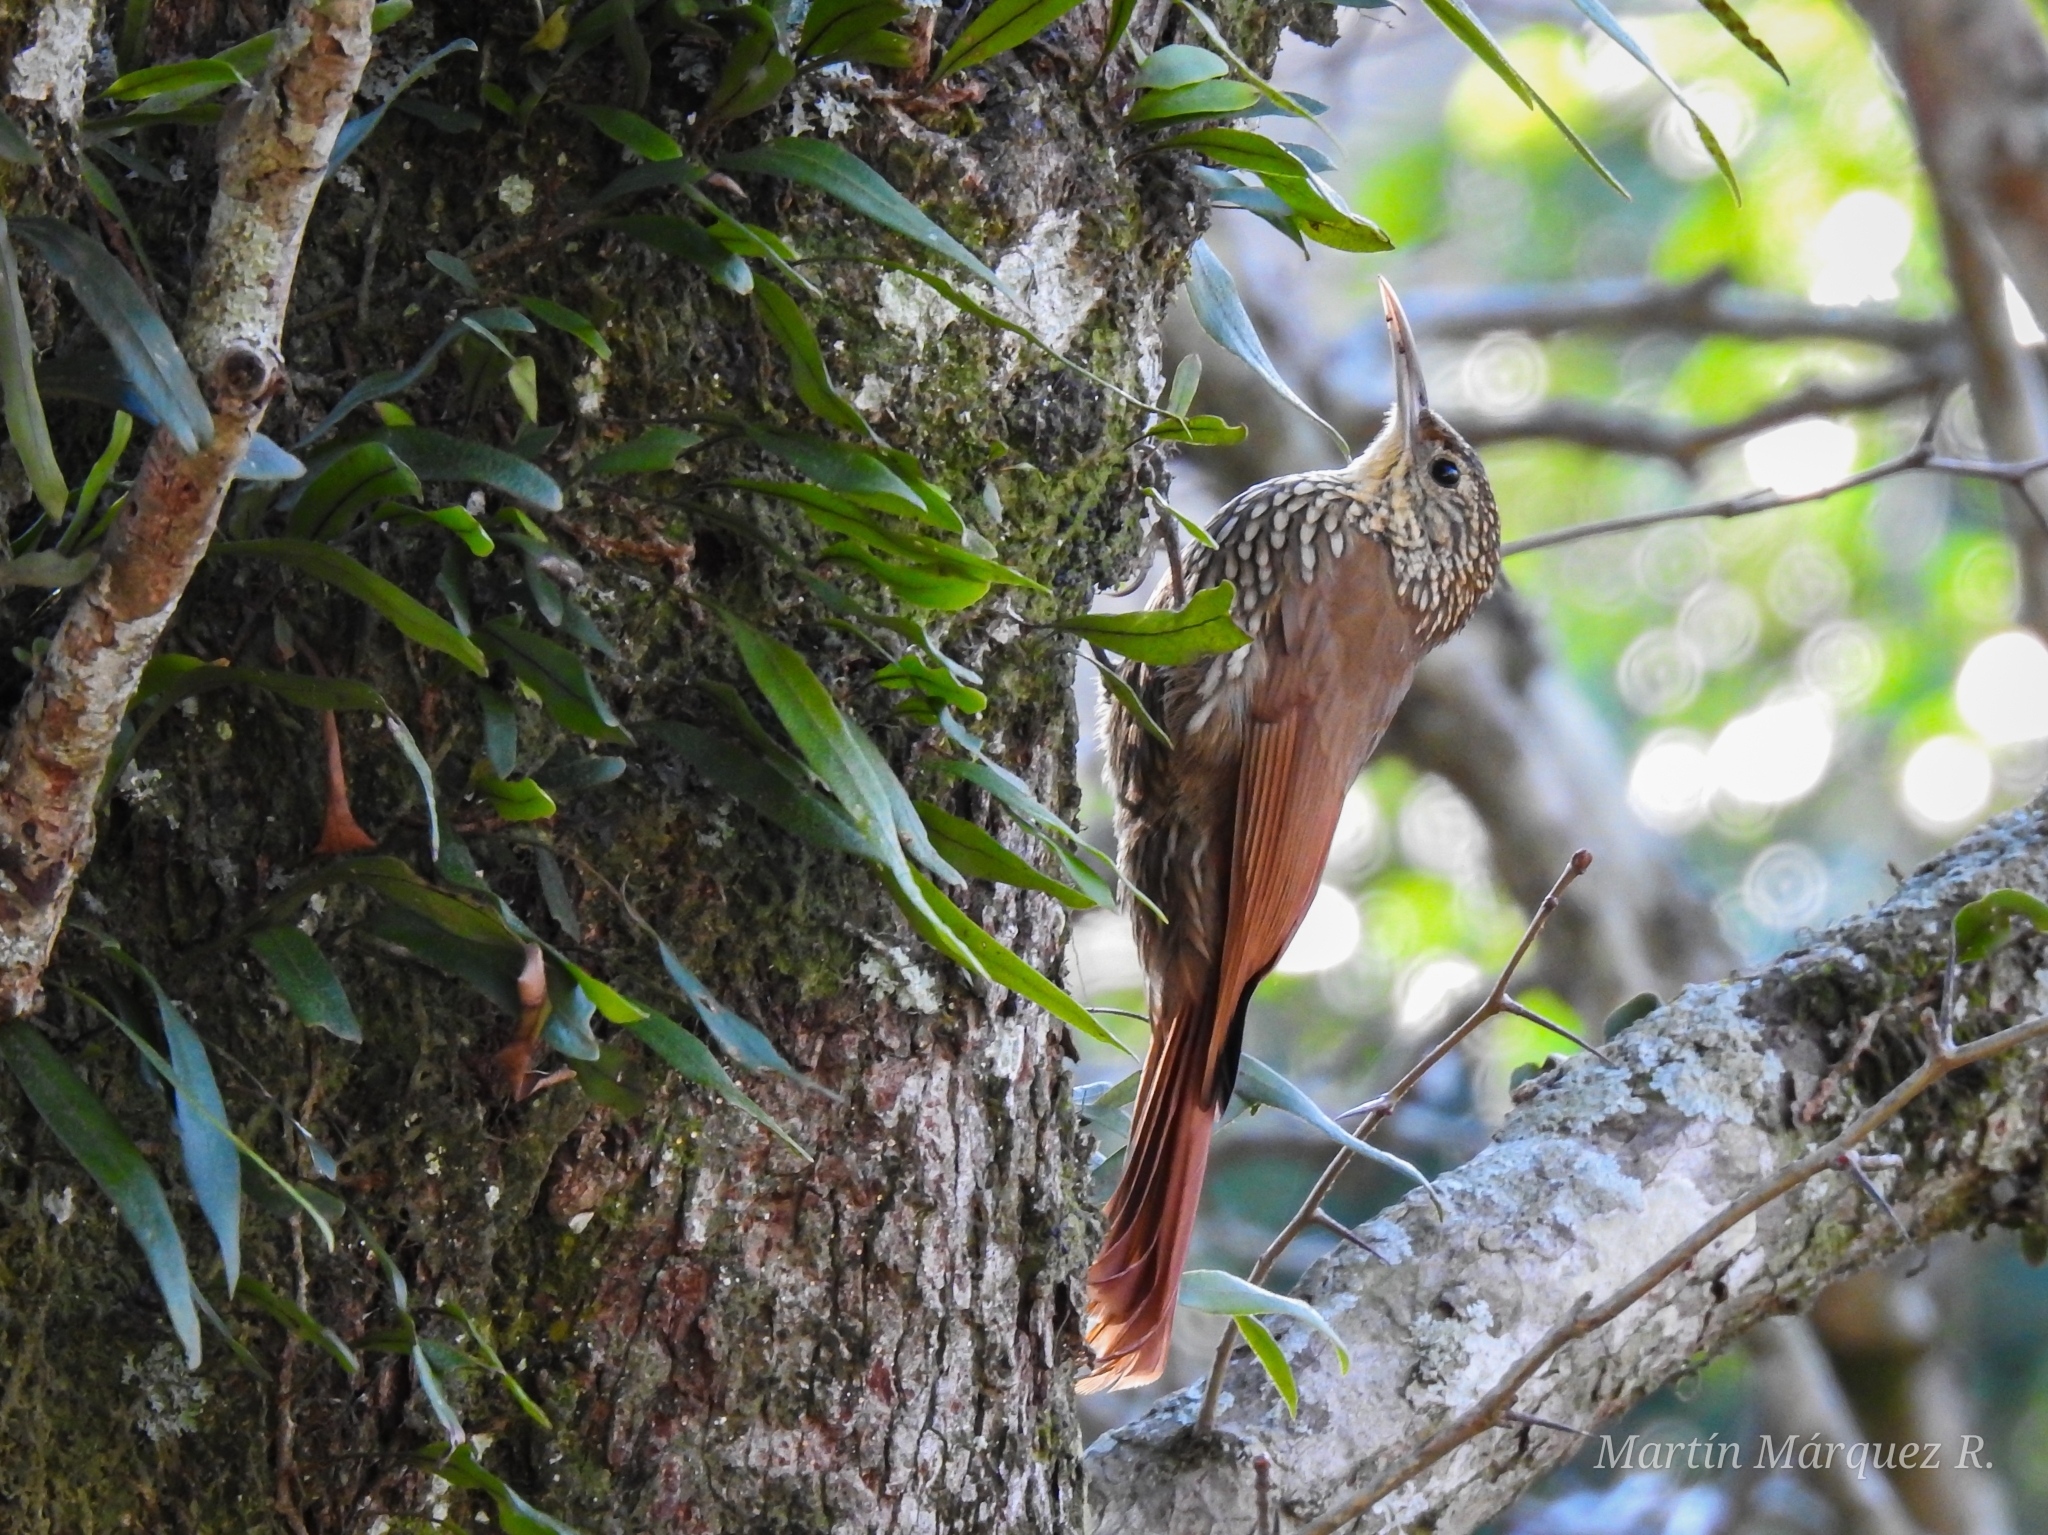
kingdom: Animalia
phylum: Chordata
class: Aves
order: Passeriformes
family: Furnariidae
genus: Lepidocolaptes
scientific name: Lepidocolaptes affinis
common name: Spot-crowned woodcreeper
